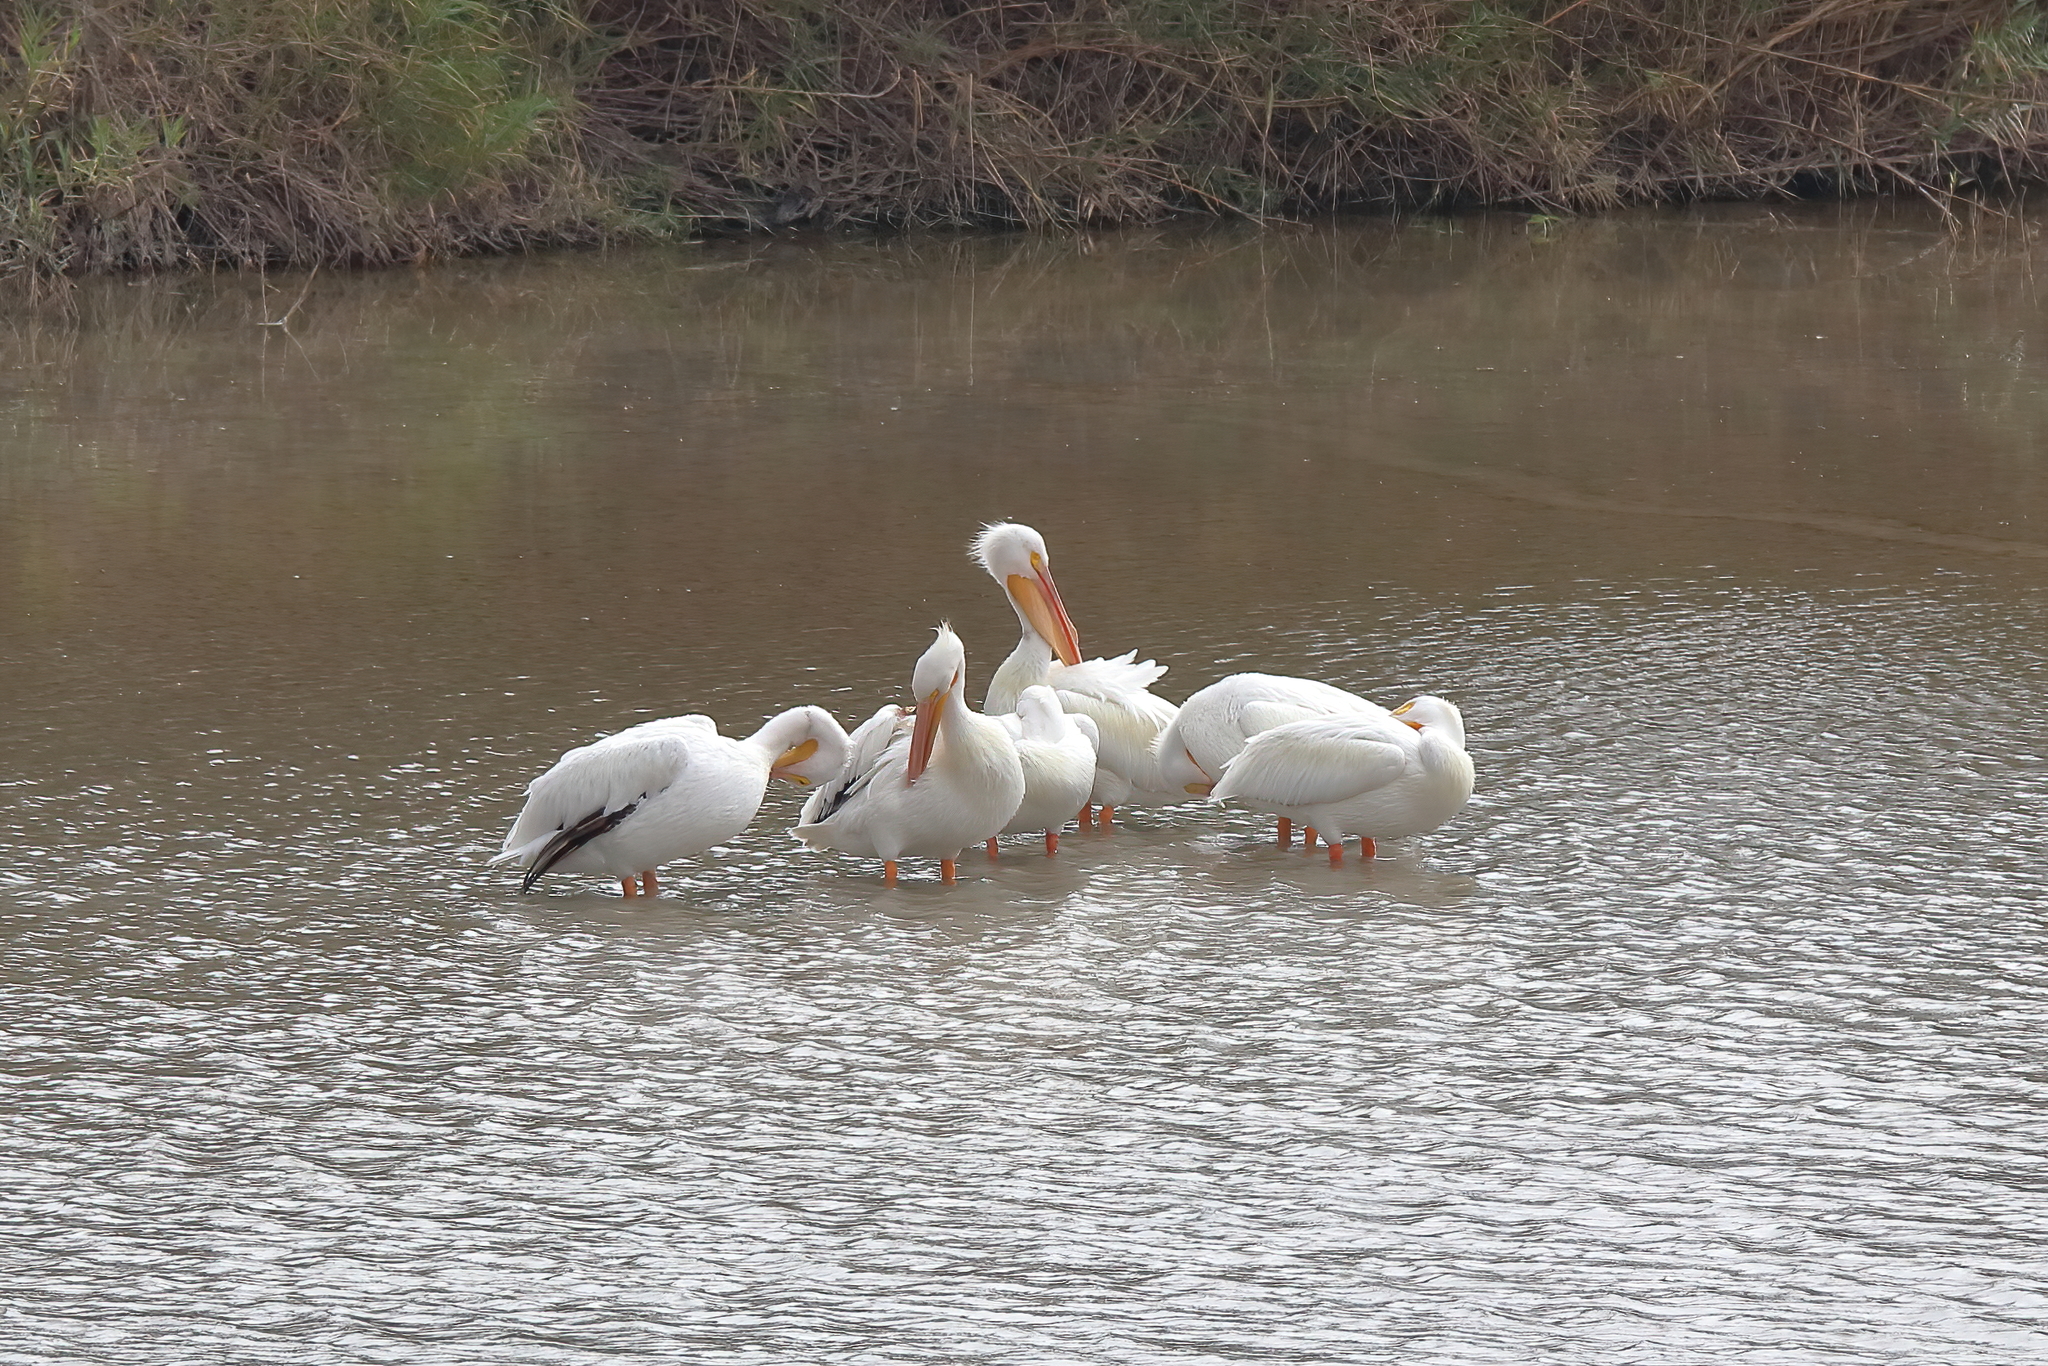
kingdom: Animalia
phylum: Chordata
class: Aves
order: Pelecaniformes
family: Pelecanidae
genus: Pelecanus
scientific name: Pelecanus erythrorhynchos
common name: American white pelican
